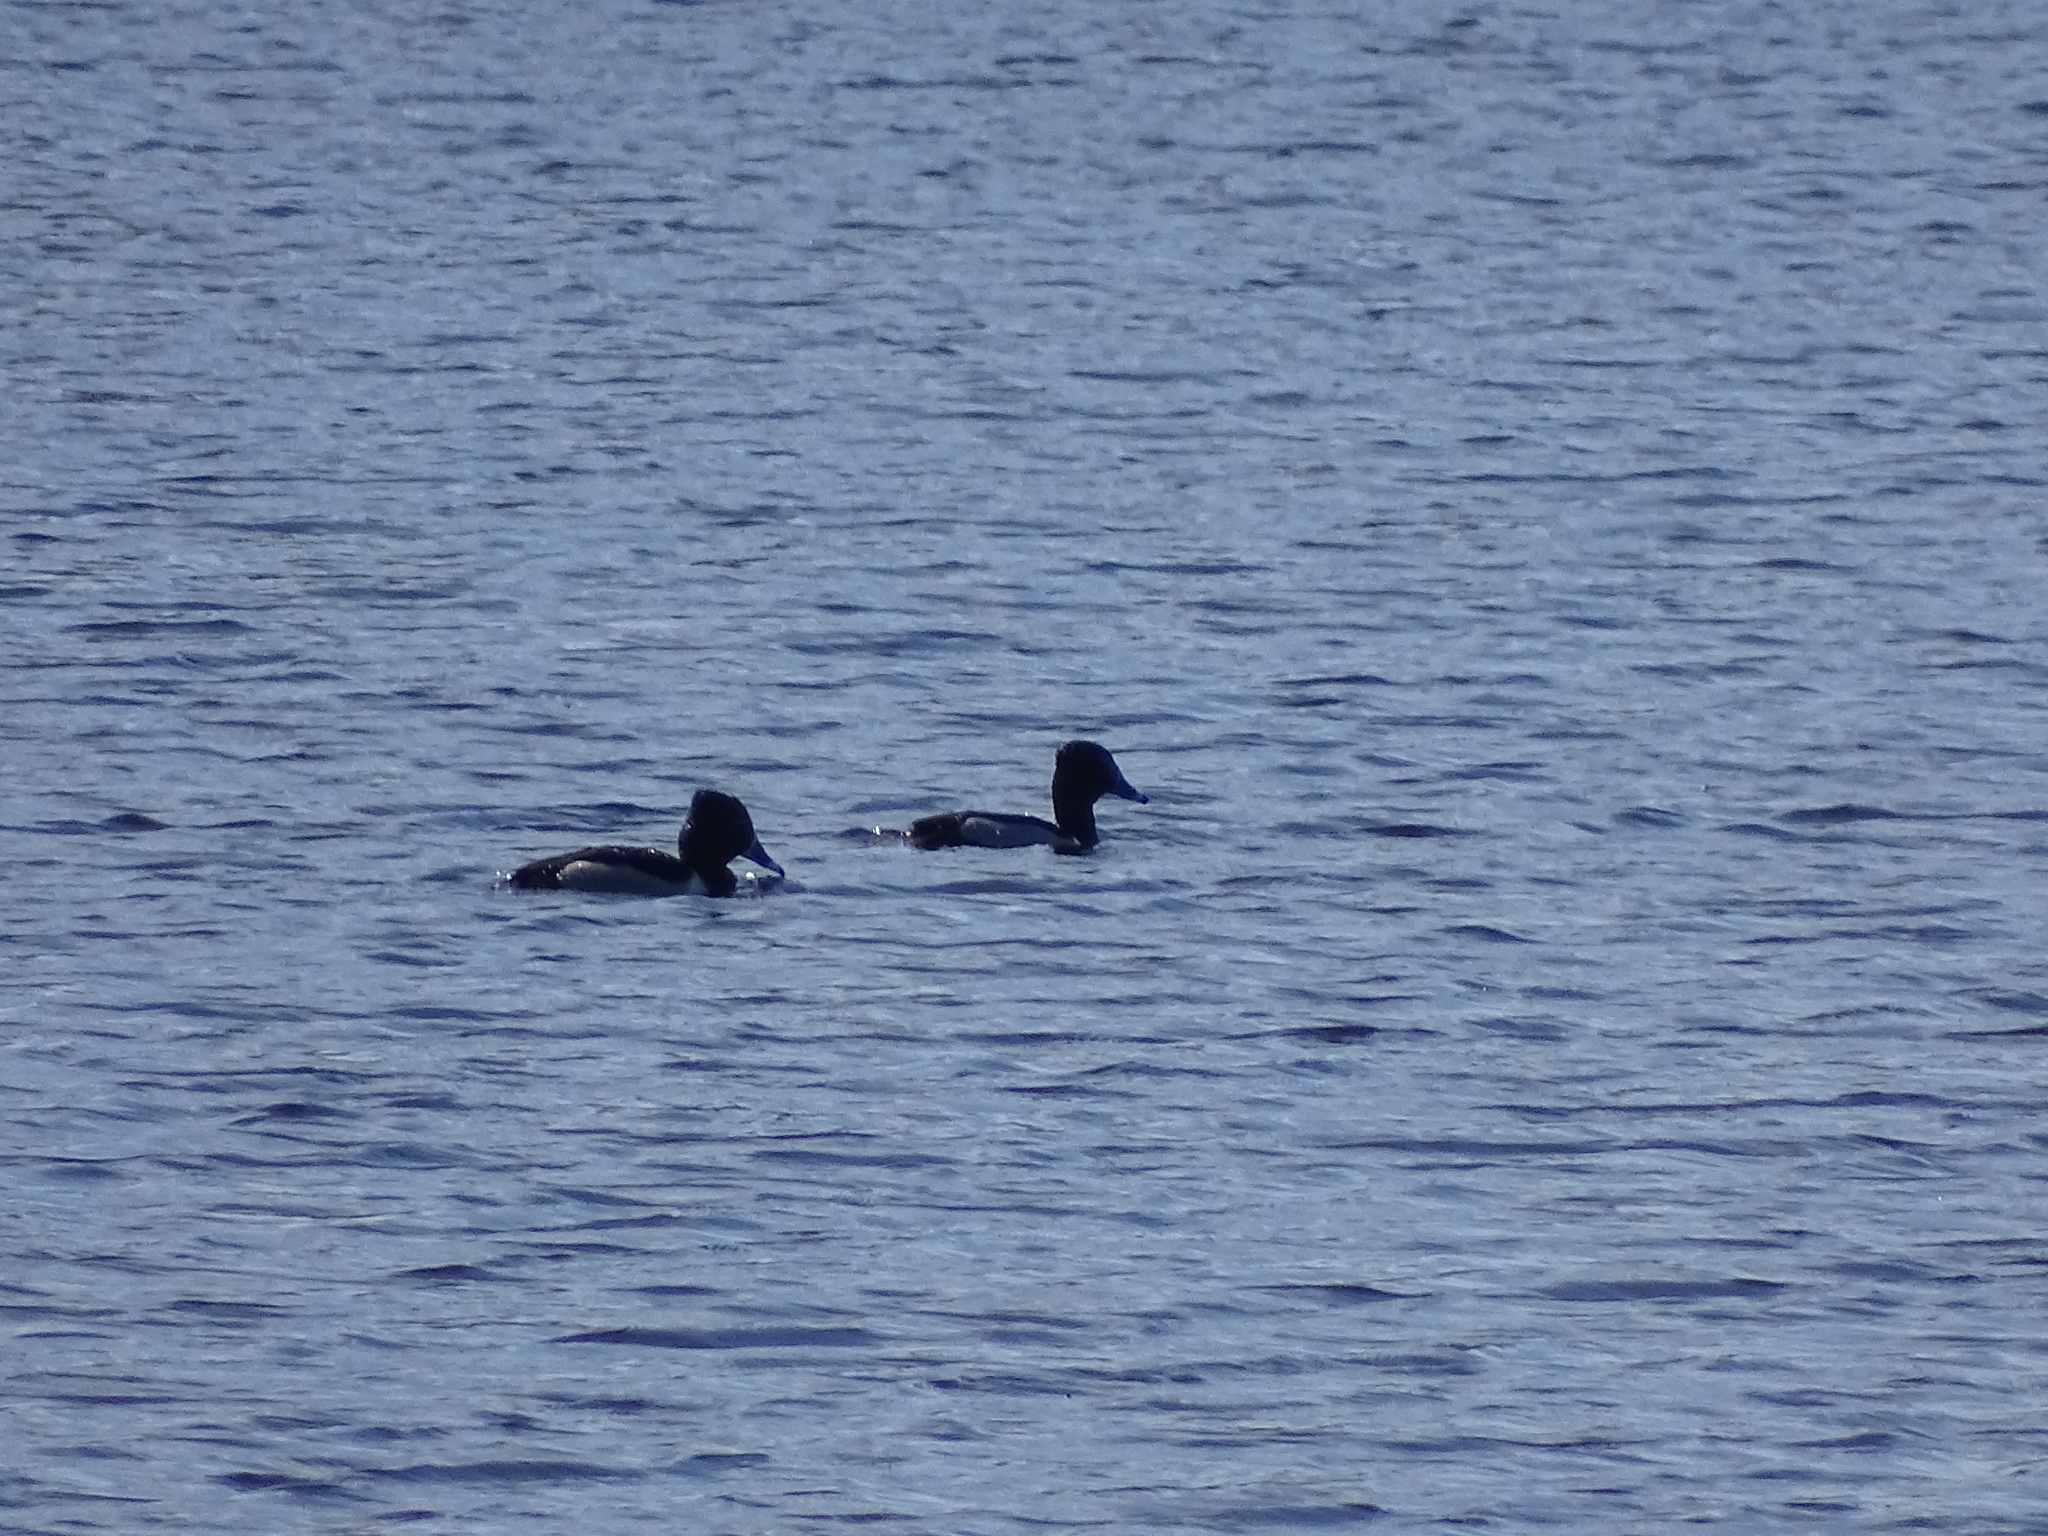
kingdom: Animalia
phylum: Chordata
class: Aves
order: Anseriformes
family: Anatidae
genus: Aythya
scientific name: Aythya collaris
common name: Ring-necked duck
